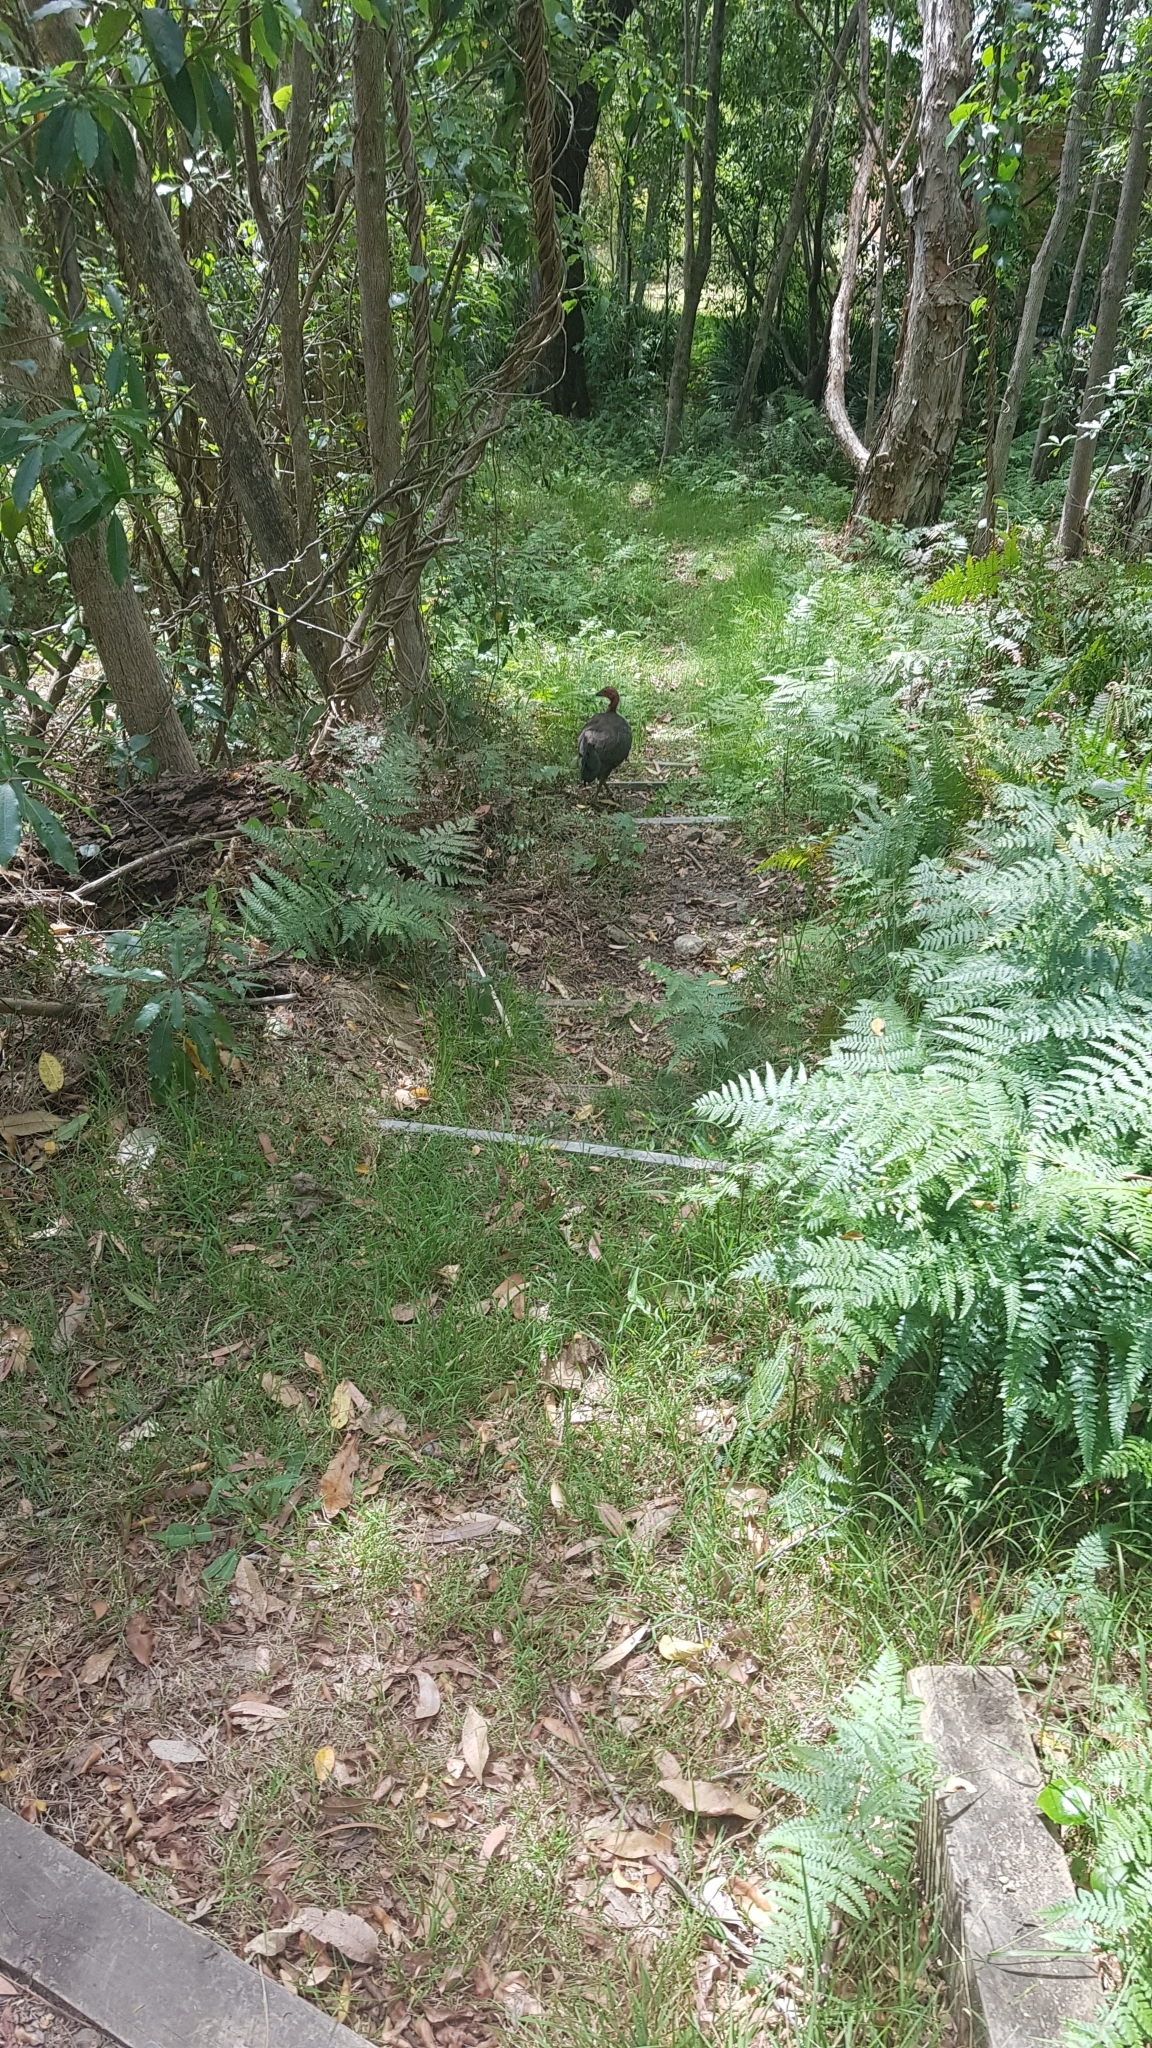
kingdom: Animalia
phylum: Chordata
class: Aves
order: Galliformes
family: Megapodiidae
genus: Alectura
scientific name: Alectura lathami
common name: Australian brushturkey
